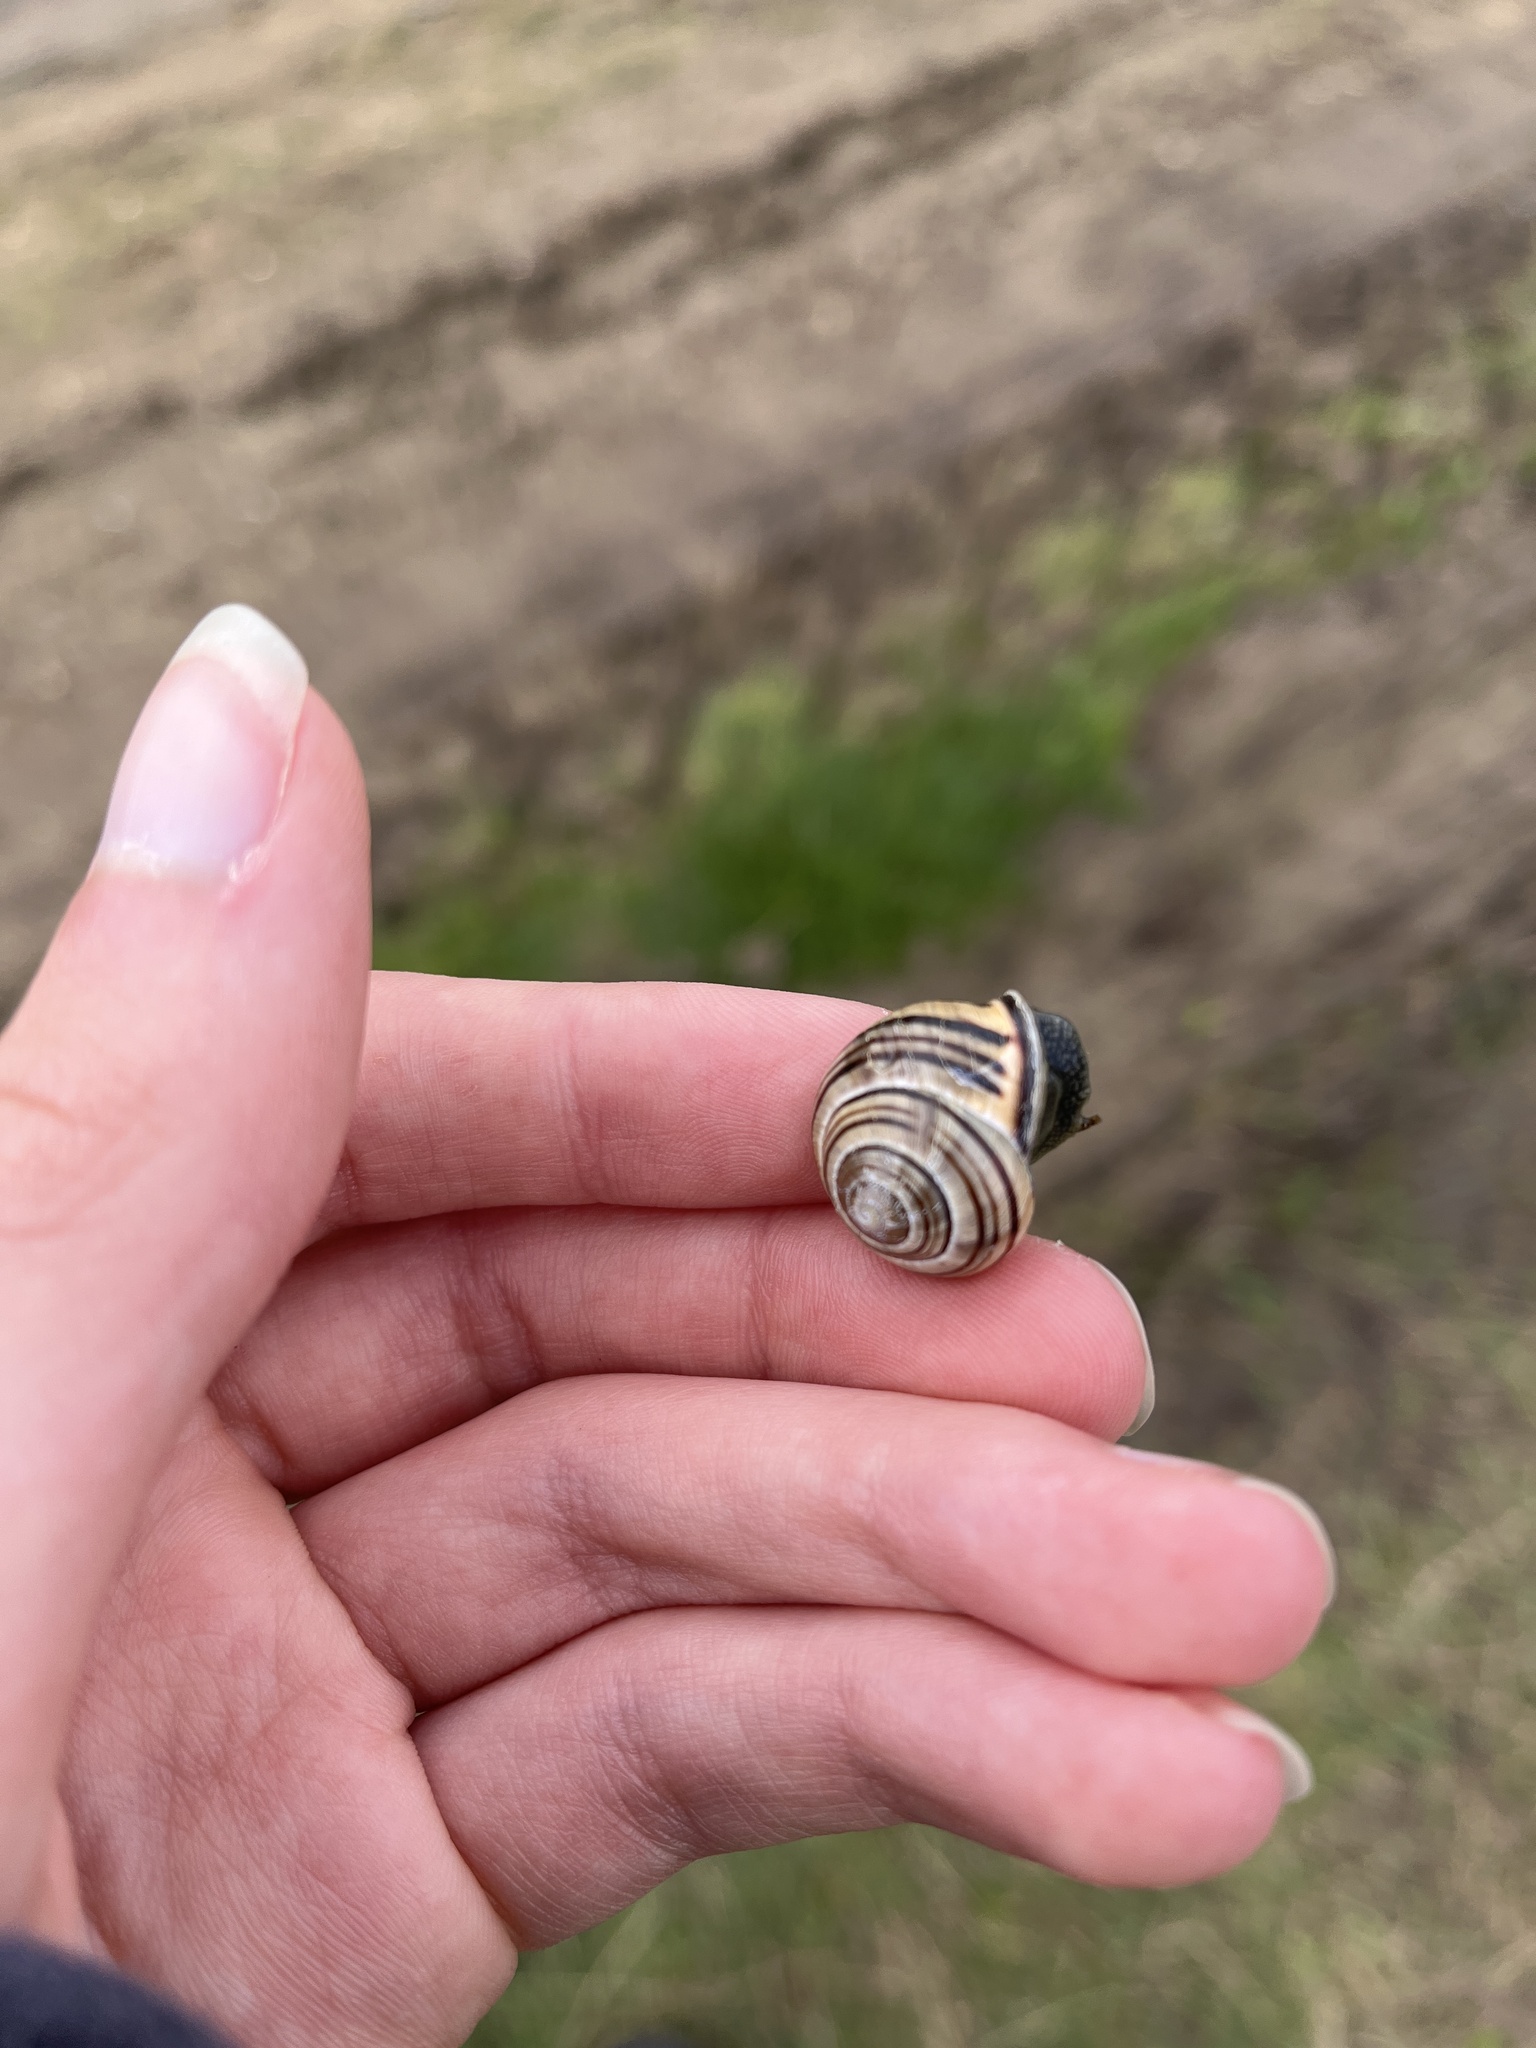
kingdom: Animalia
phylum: Mollusca
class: Gastropoda
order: Stylommatophora
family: Helicidae
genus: Cepaea
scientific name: Cepaea nemoralis
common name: Grovesnail
